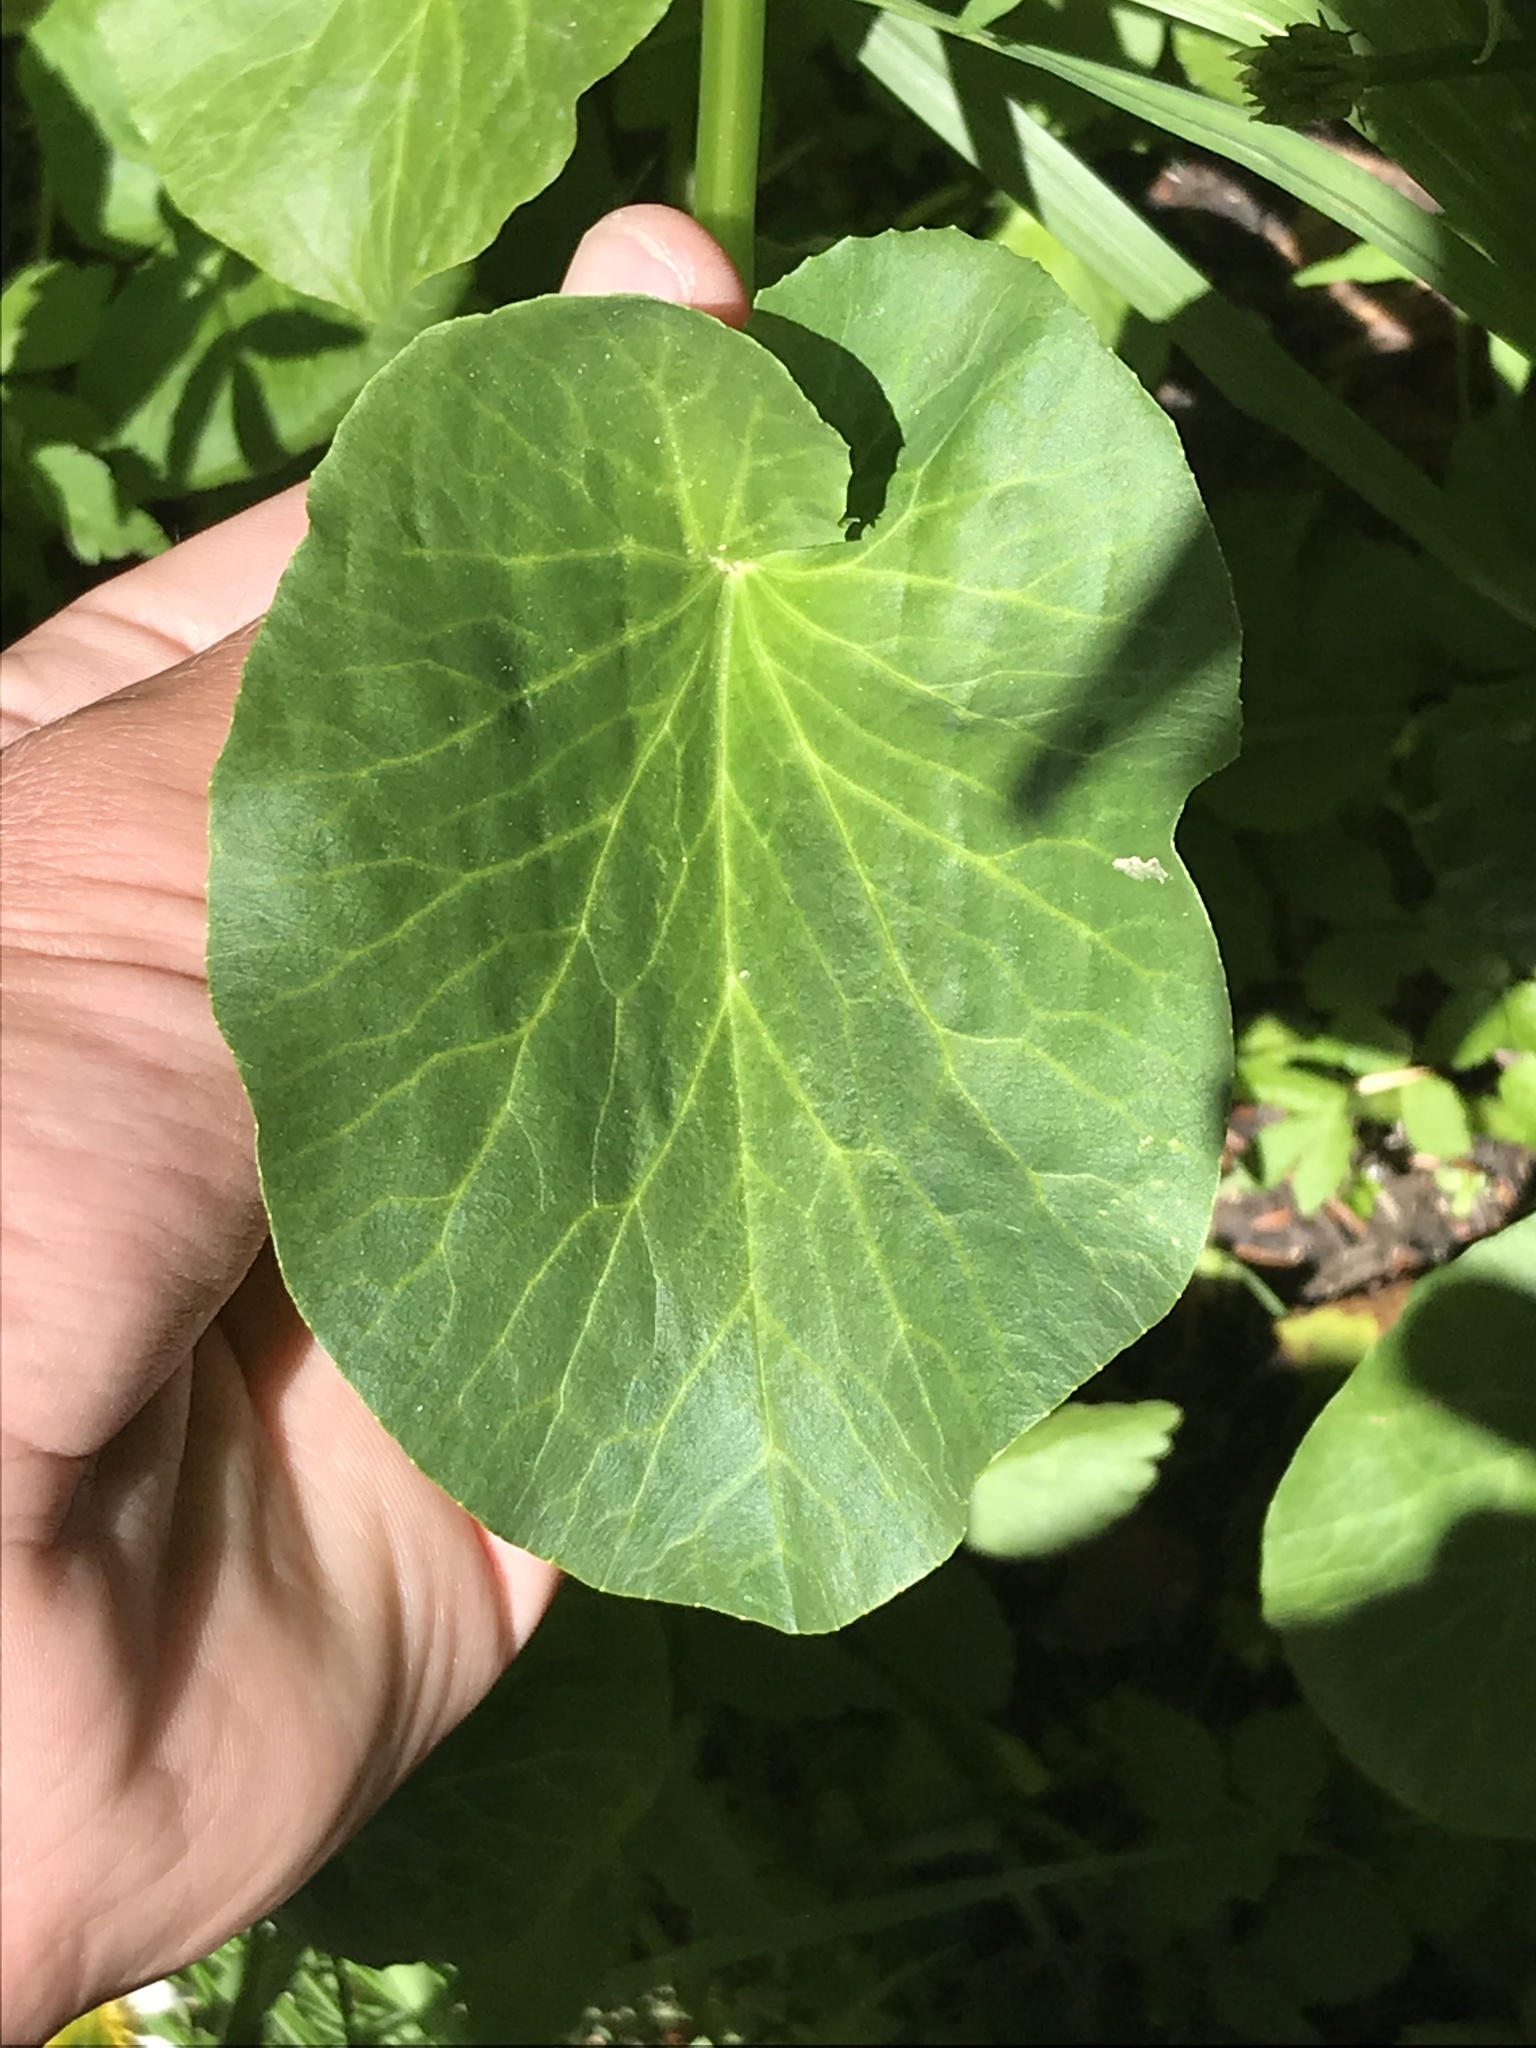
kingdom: Plantae
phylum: Tracheophyta
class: Magnoliopsida
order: Ranunculales
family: Ranunculaceae
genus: Caltha
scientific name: Caltha leptosepala
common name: Elkslip
